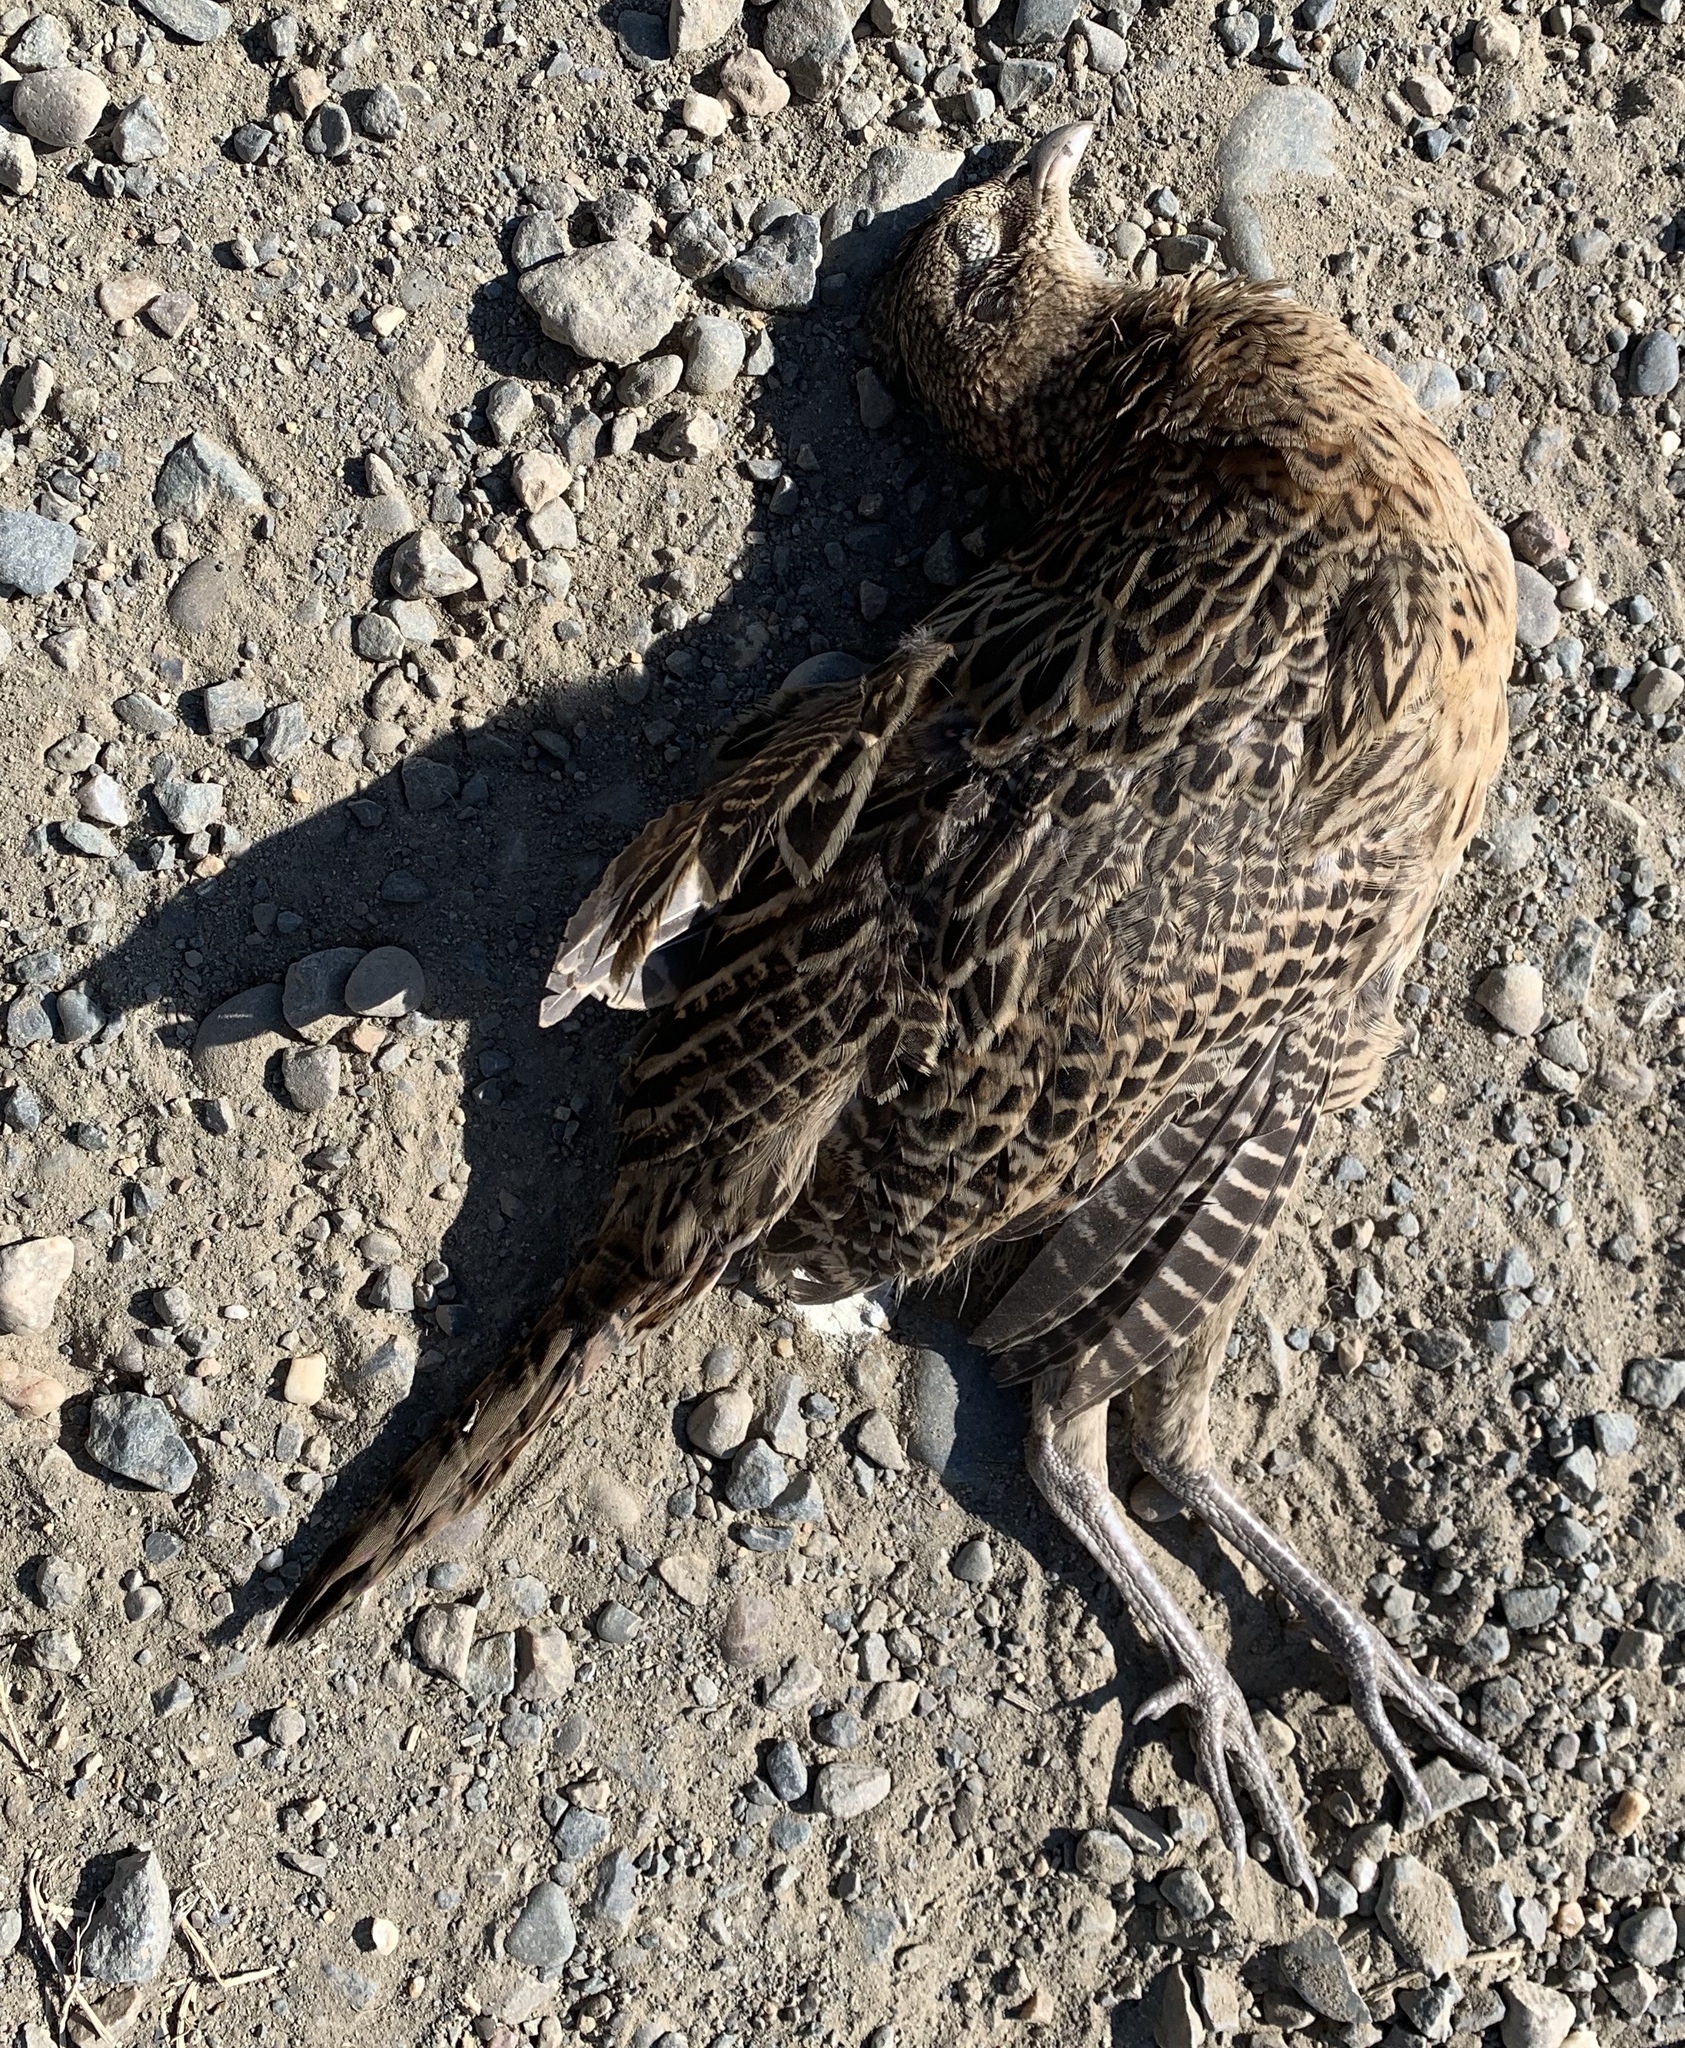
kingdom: Animalia
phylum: Chordata
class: Aves
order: Galliformes
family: Phasianidae
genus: Phasianus
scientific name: Phasianus colchicus
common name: Common pheasant
